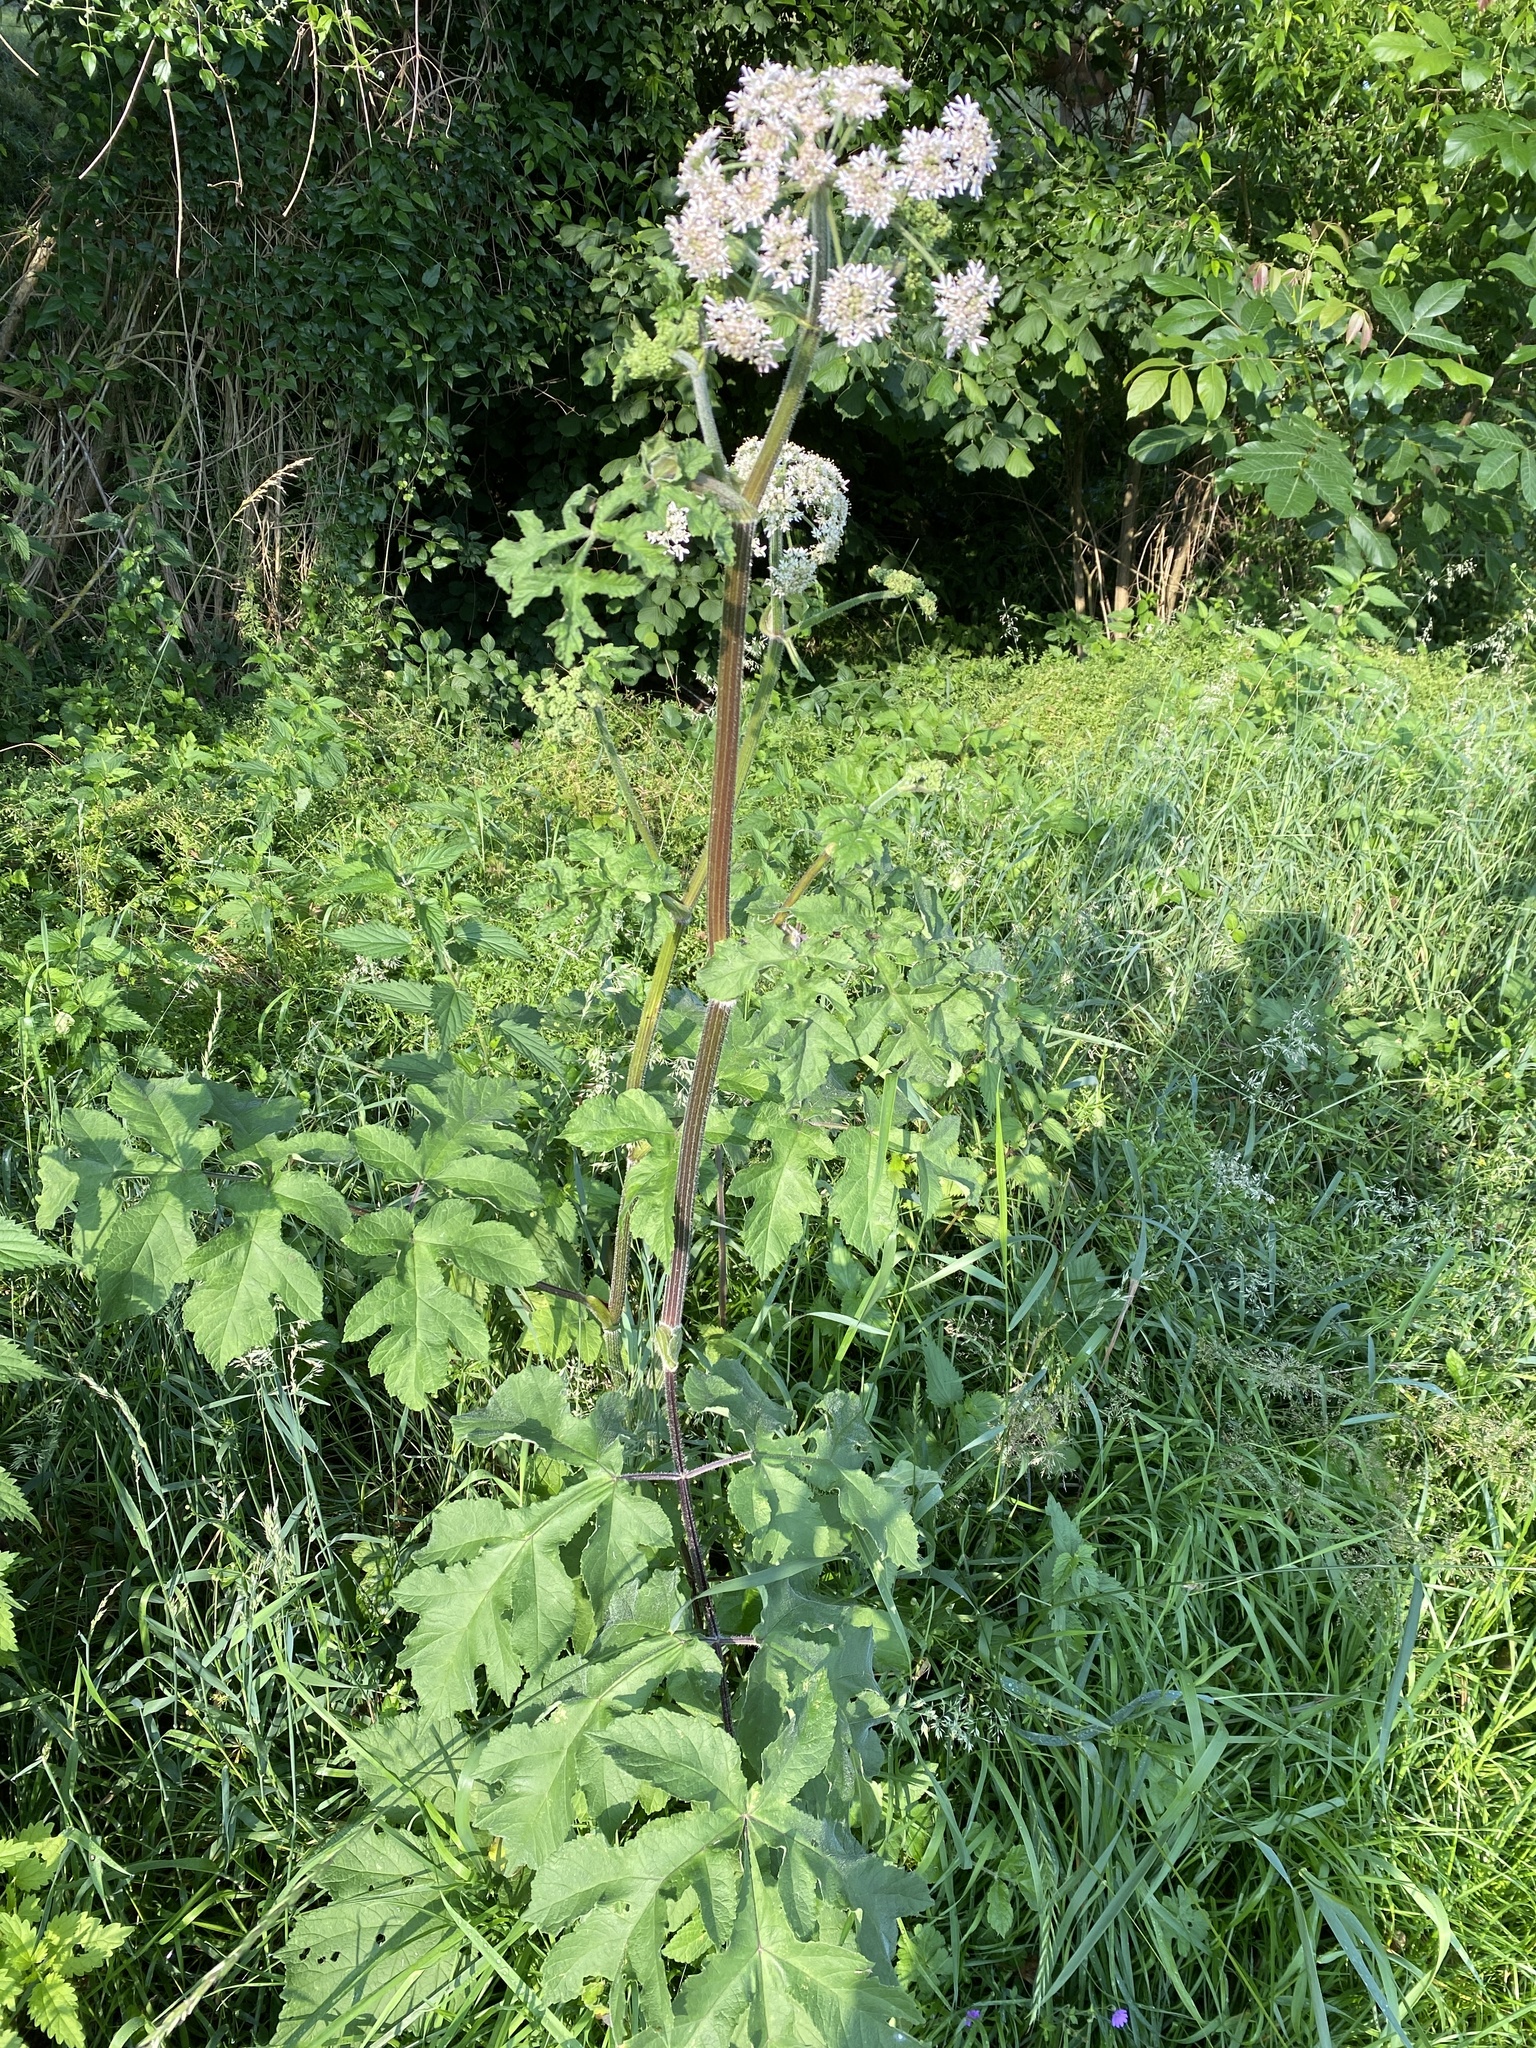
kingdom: Plantae
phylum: Tracheophyta
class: Magnoliopsida
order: Apiales
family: Apiaceae
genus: Heracleum
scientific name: Heracleum sphondylium
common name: Hogweed
